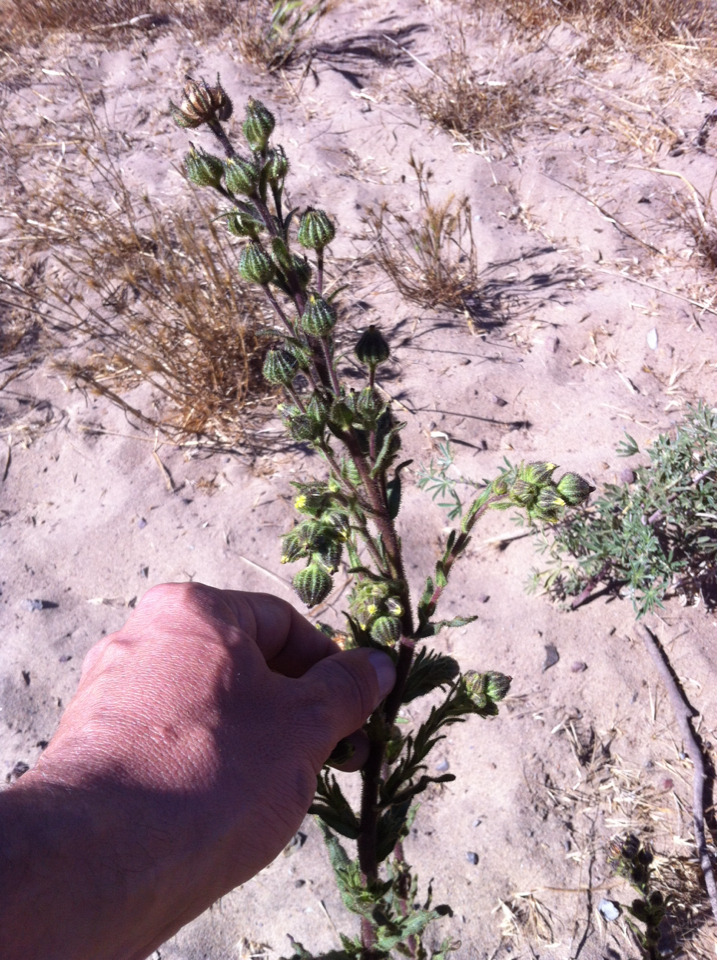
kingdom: Plantae
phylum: Tracheophyta
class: Magnoliopsida
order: Asterales
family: Asteraceae
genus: Madia
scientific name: Madia sativa
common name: Coast tarweed
